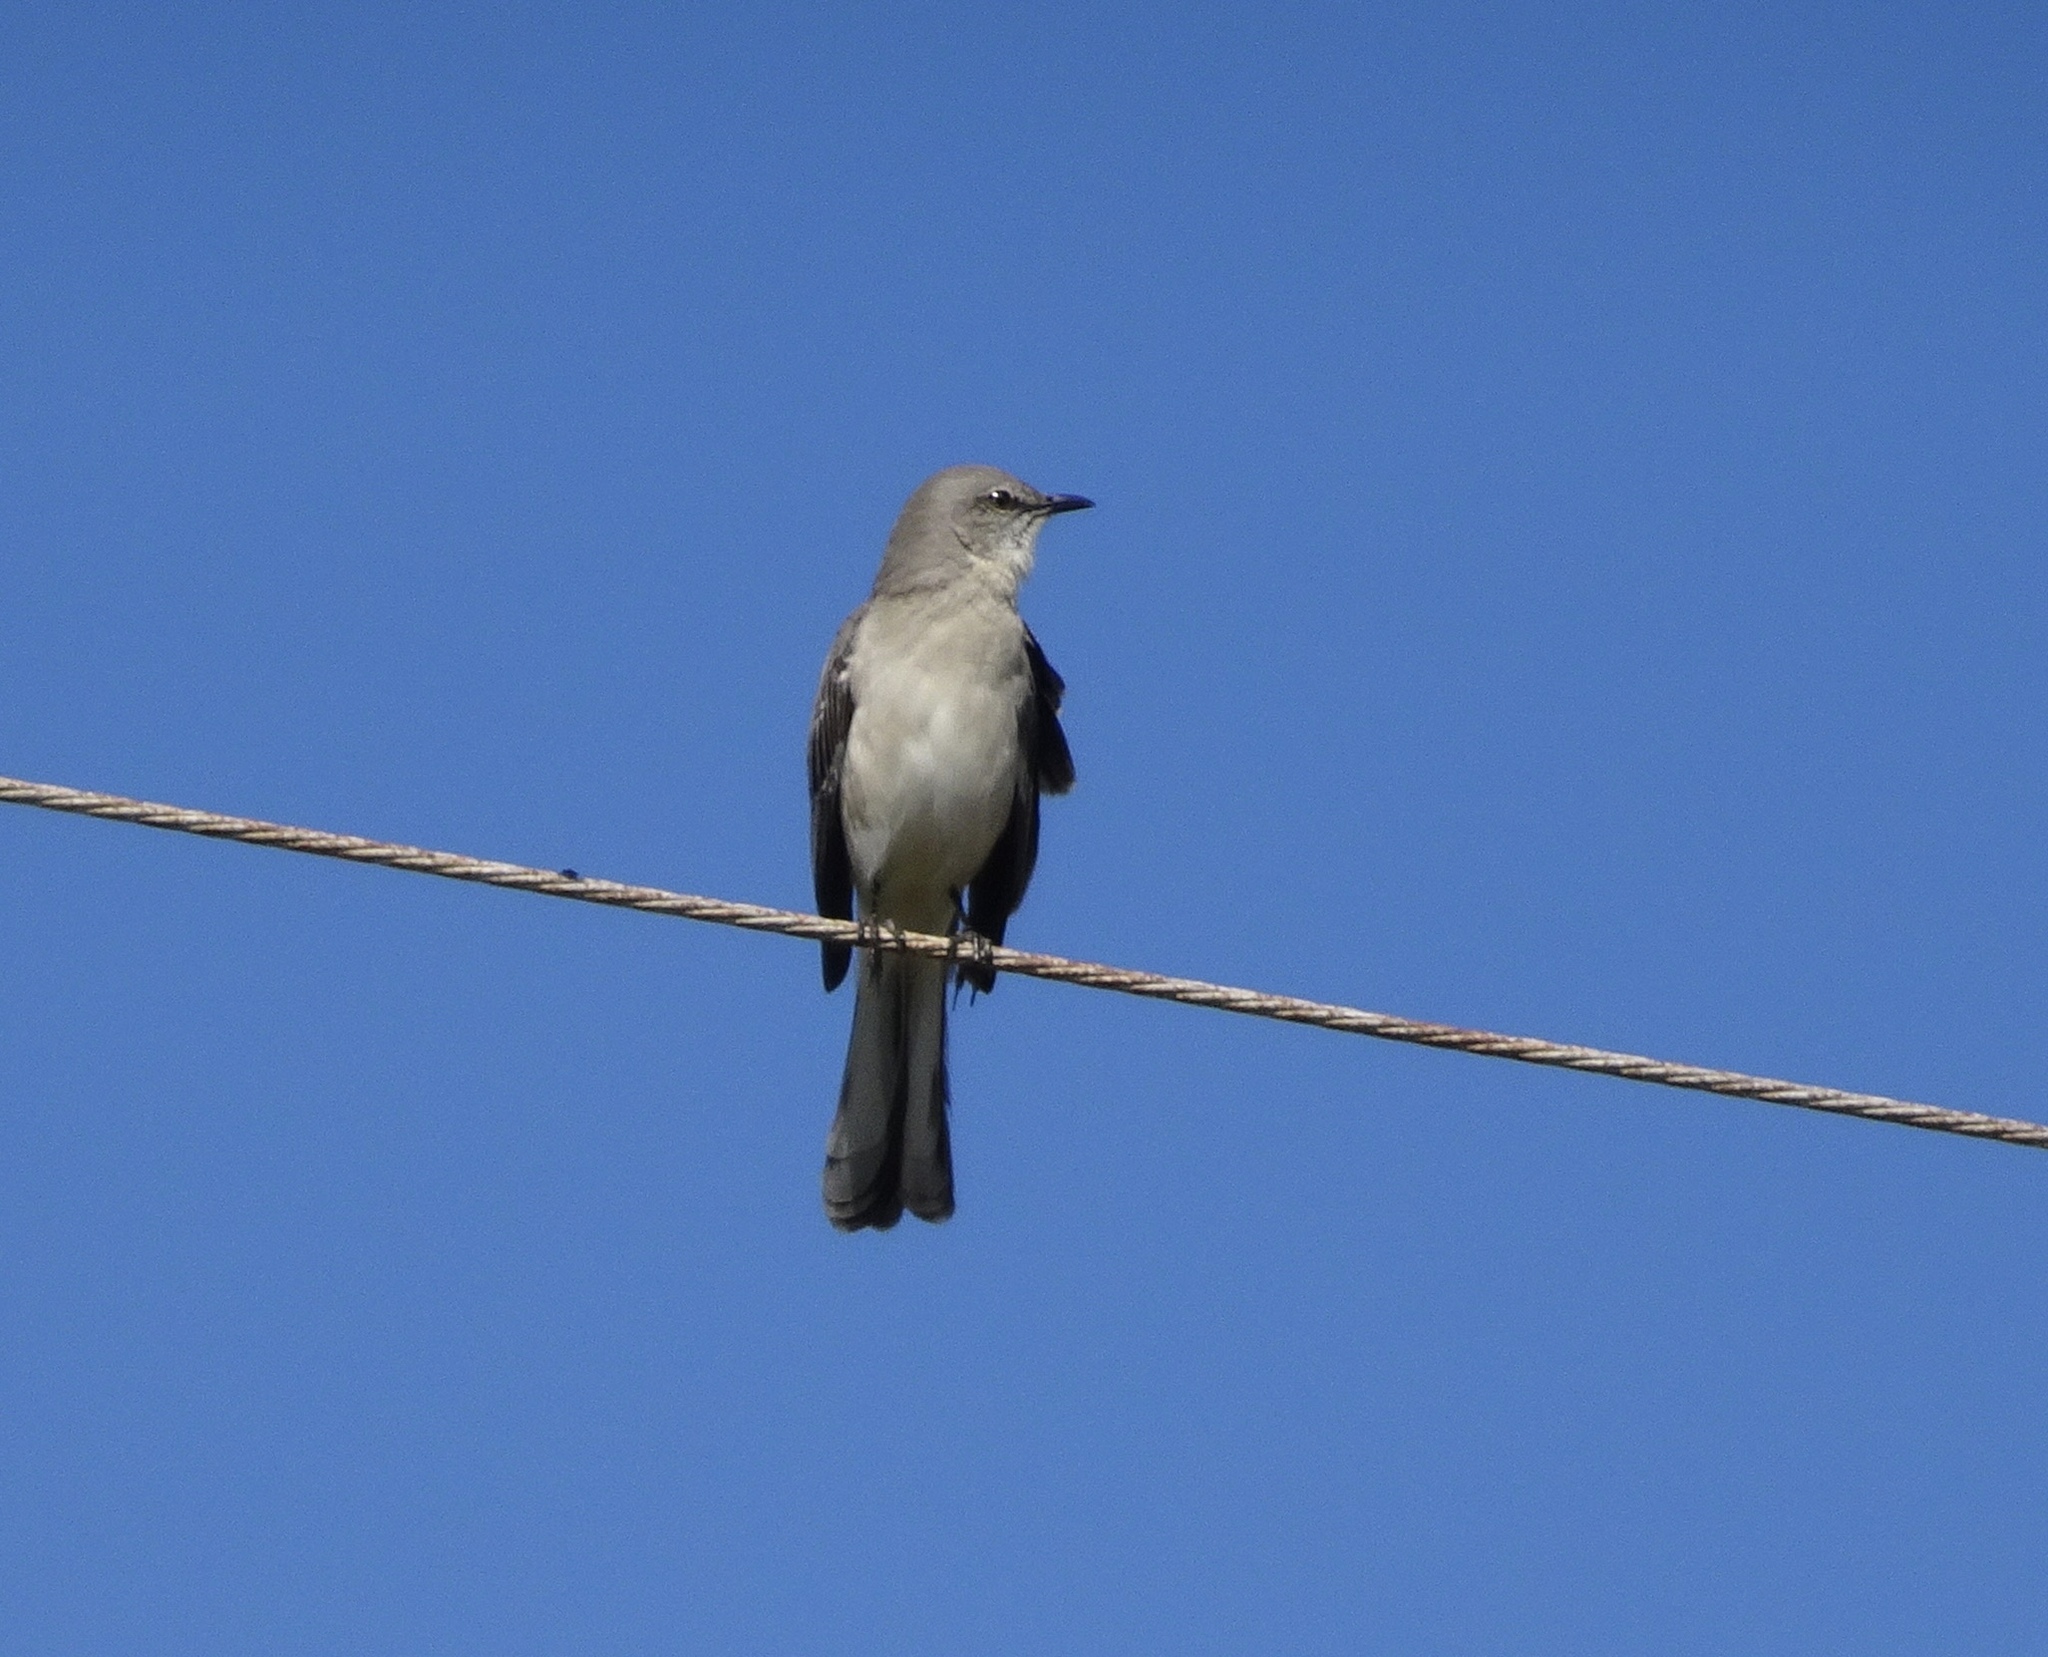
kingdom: Animalia
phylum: Chordata
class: Aves
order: Passeriformes
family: Mimidae
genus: Mimus
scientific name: Mimus polyglottos
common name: Northern mockingbird
